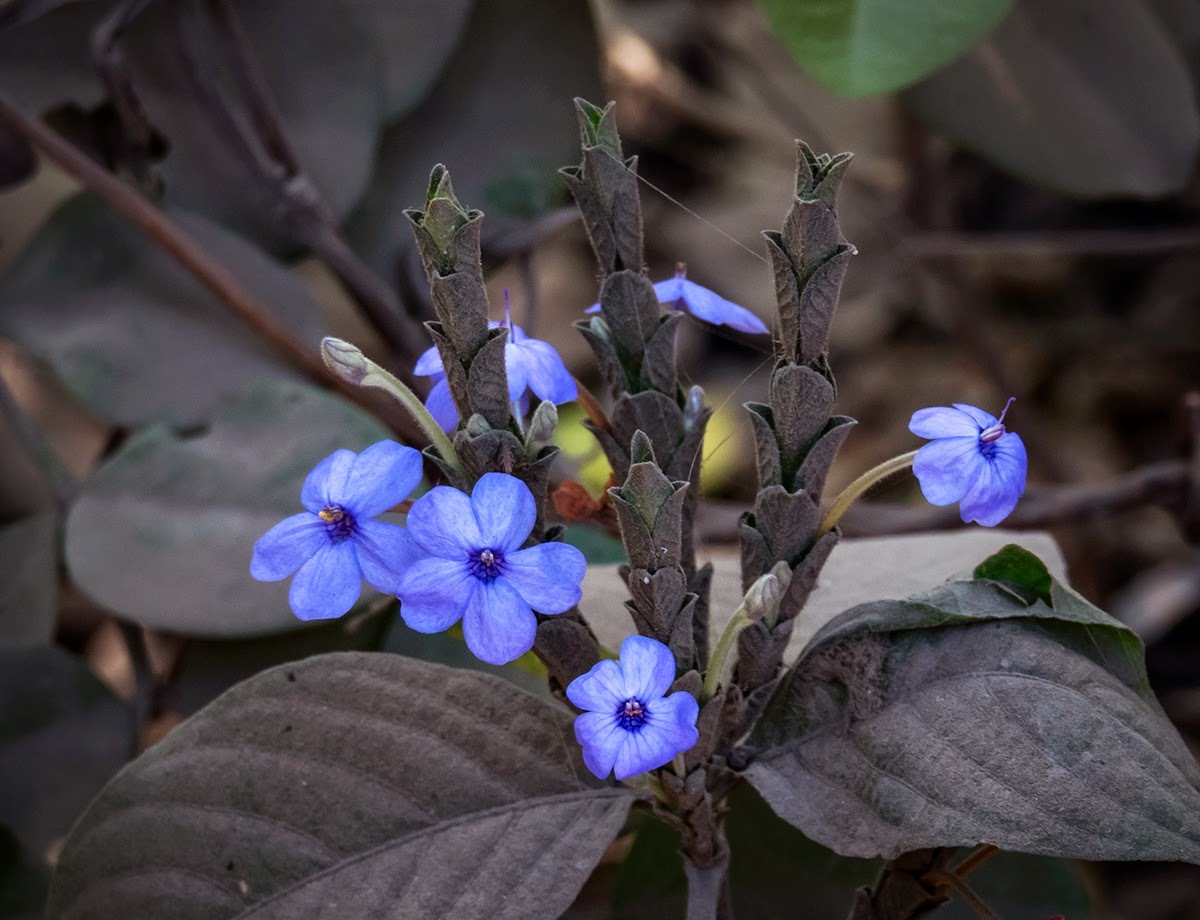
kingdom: Plantae
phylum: Tracheophyta
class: Magnoliopsida
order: Lamiales
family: Acanthaceae
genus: Eranthemum
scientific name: Eranthemum roseum
